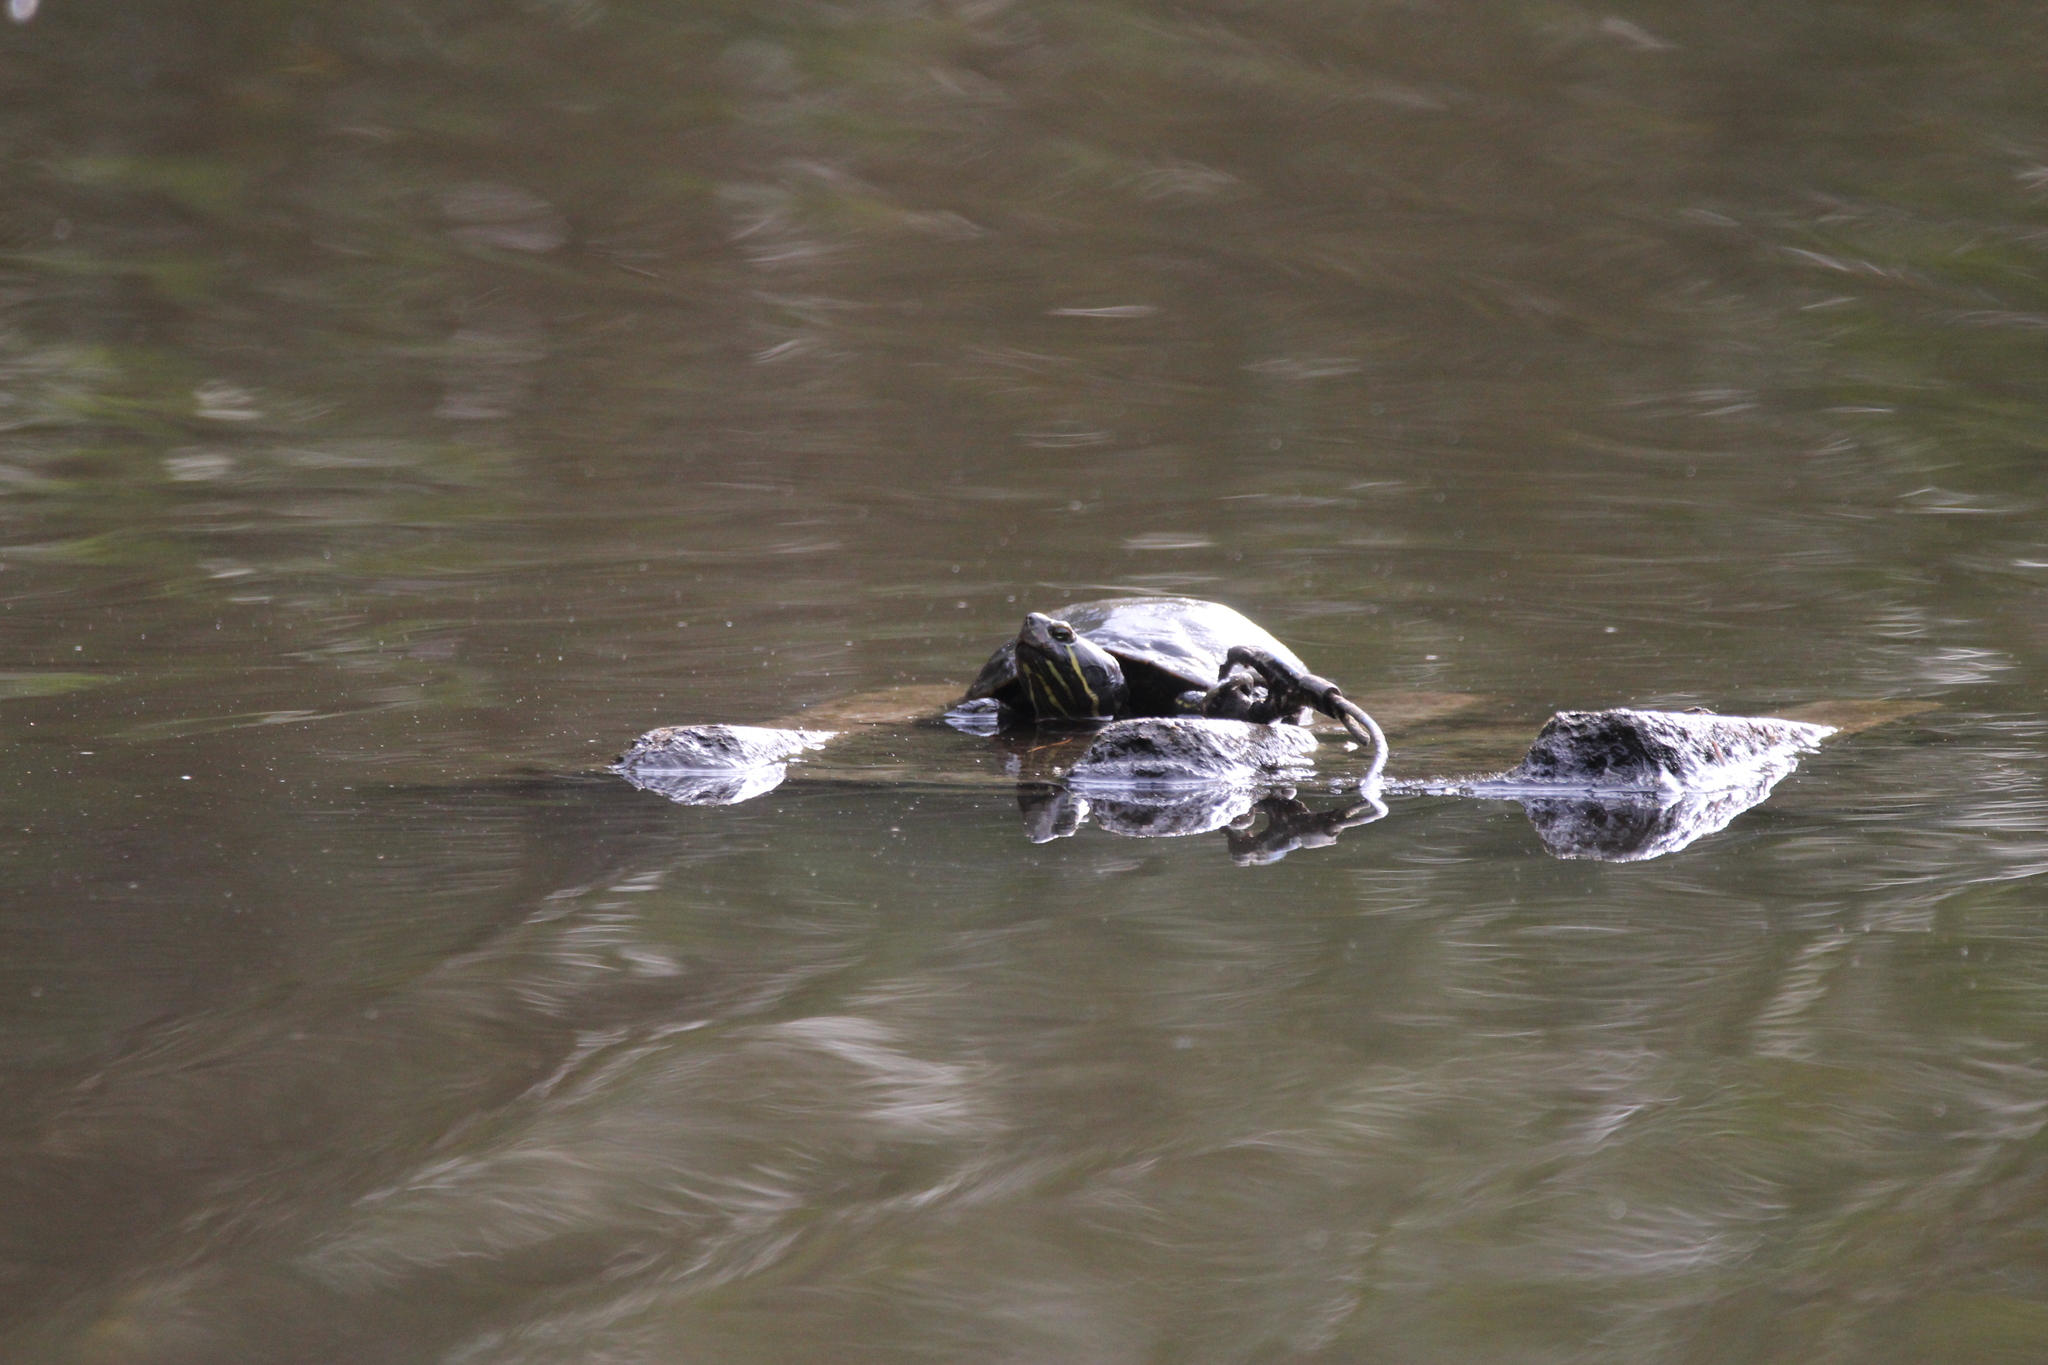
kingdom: Animalia
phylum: Chordata
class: Testudines
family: Emydidae
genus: Trachemys
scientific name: Trachemys scripta
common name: Slider
